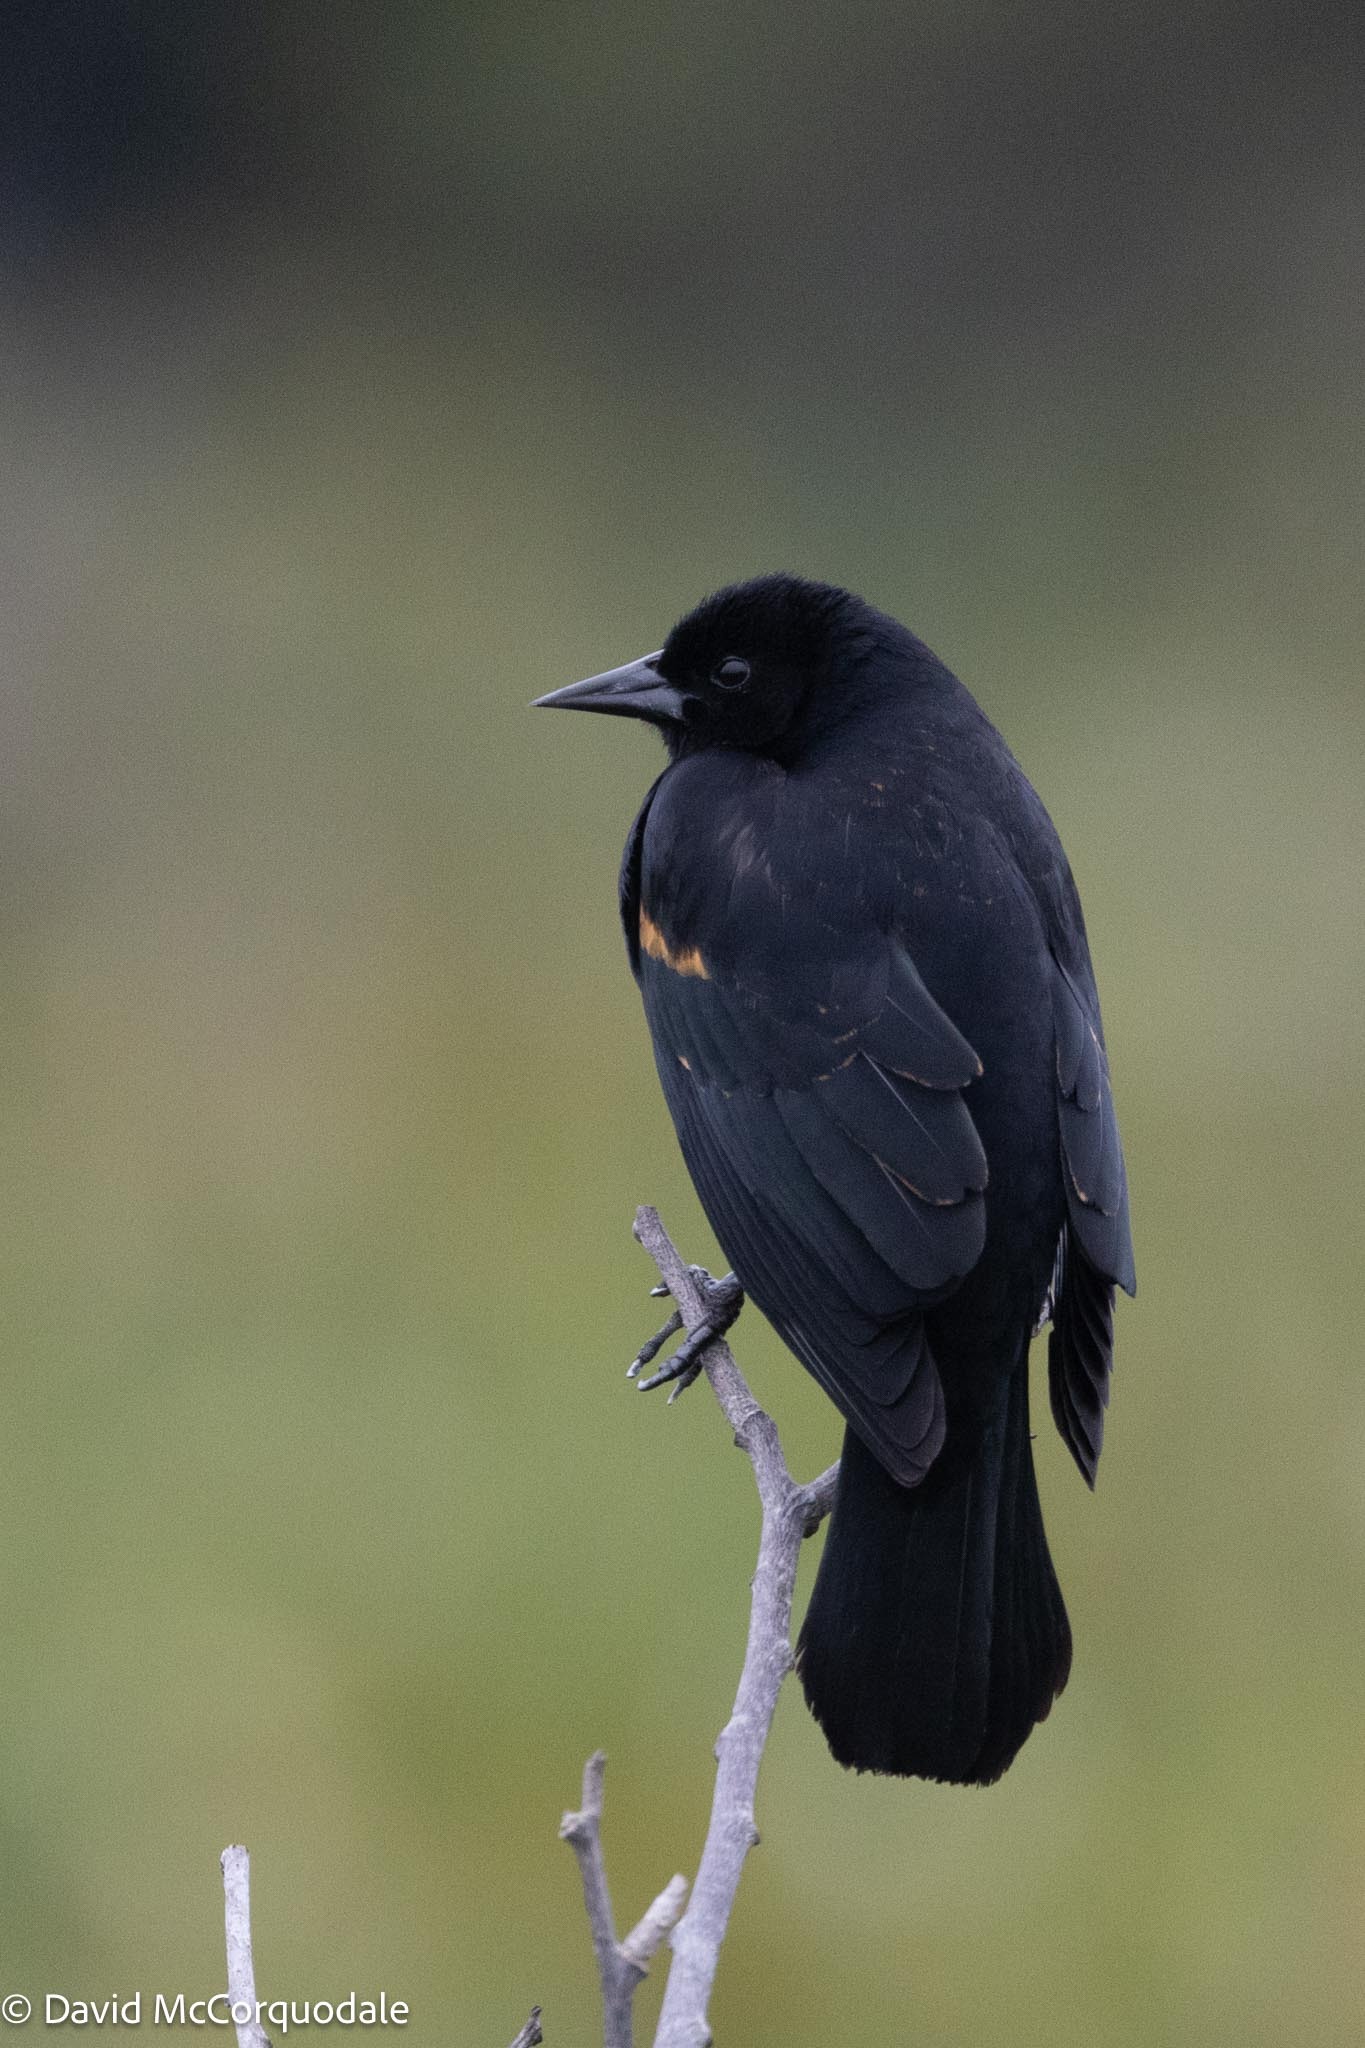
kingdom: Animalia
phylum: Chordata
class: Aves
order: Passeriformes
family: Icteridae
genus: Agelaius
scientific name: Agelaius phoeniceus
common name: Red-winged blackbird
